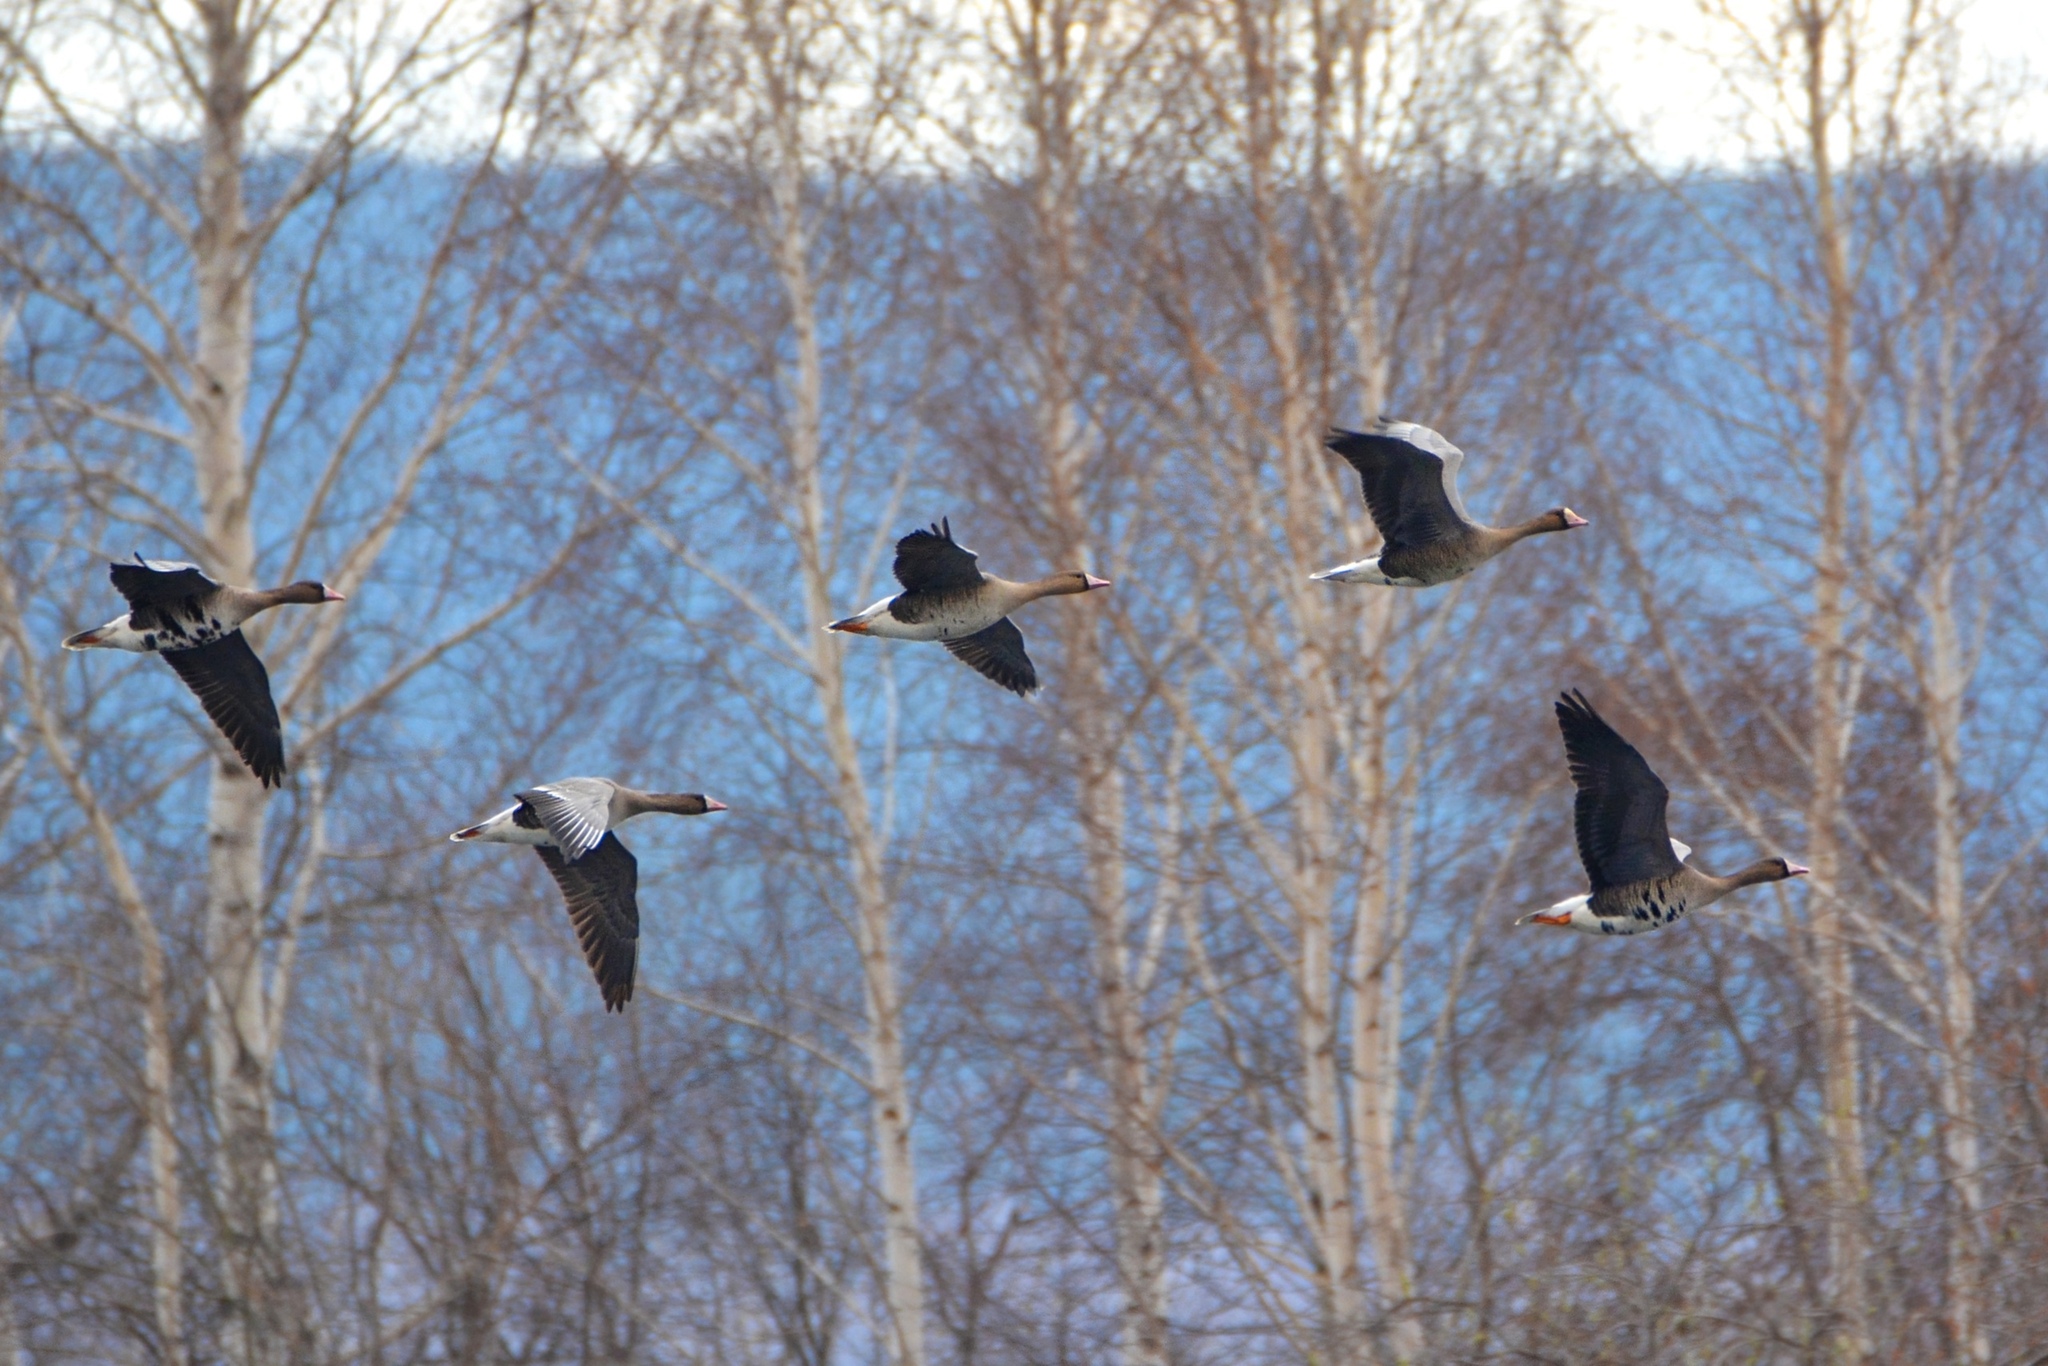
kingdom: Animalia
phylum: Chordata
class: Aves
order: Anseriformes
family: Anatidae
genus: Anser
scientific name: Anser albifrons
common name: Greater white-fronted goose
